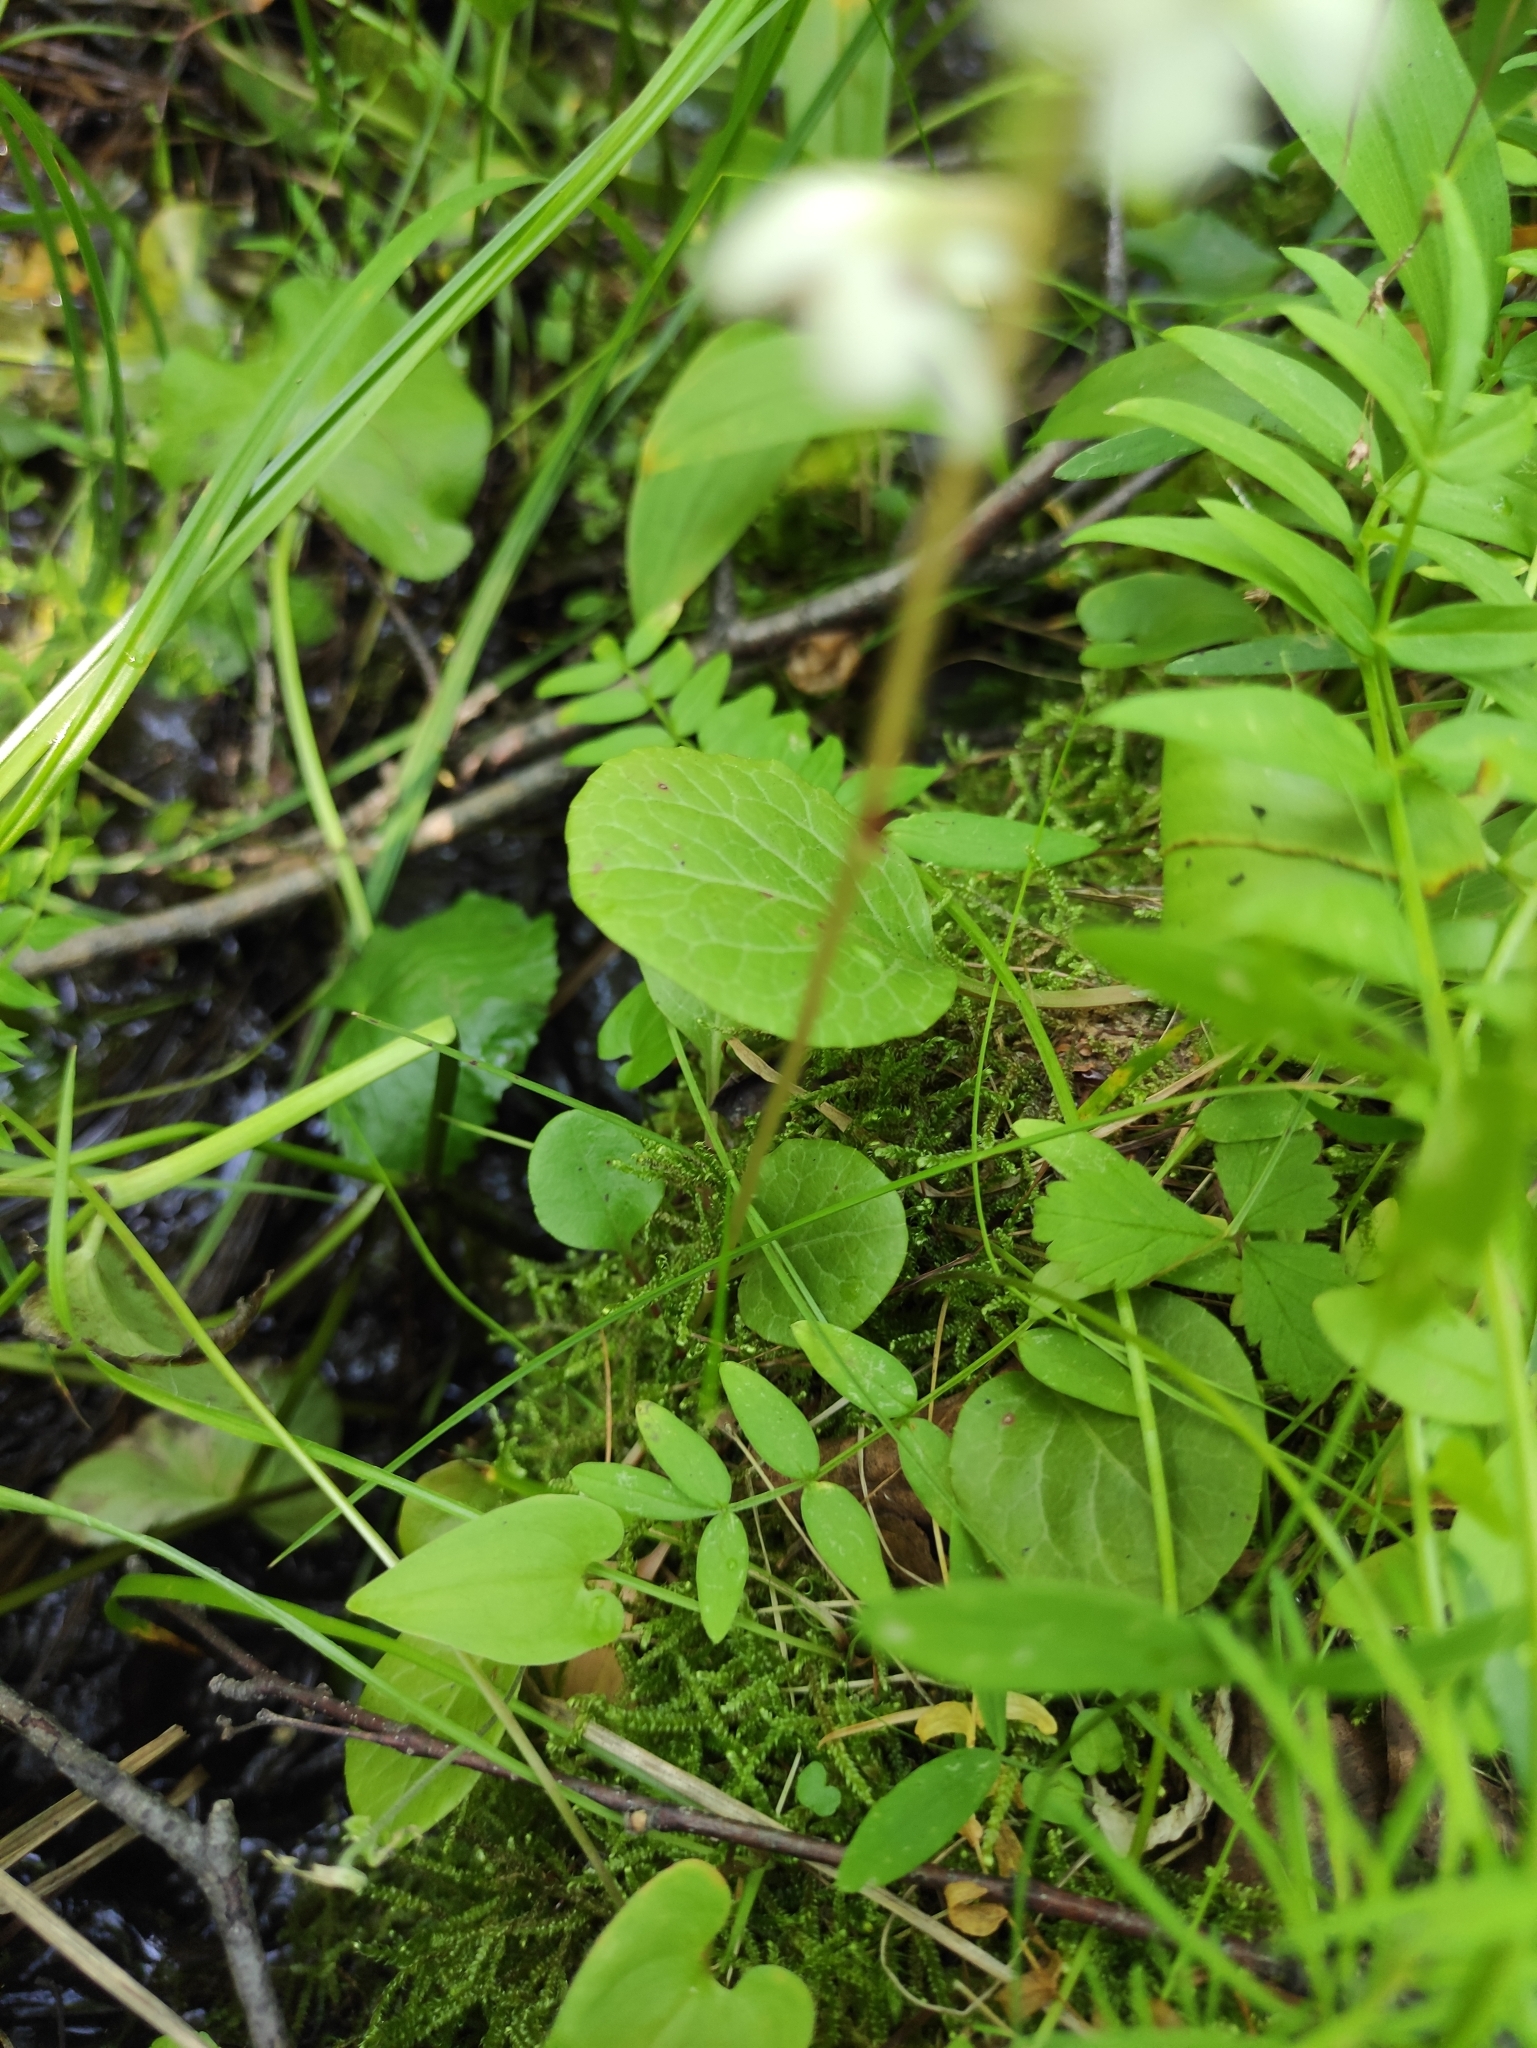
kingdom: Plantae
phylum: Tracheophyta
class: Magnoliopsida
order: Ericales
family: Ericaceae
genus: Pyrola
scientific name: Pyrola rotundifolia
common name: Round-leaved wintergreen
